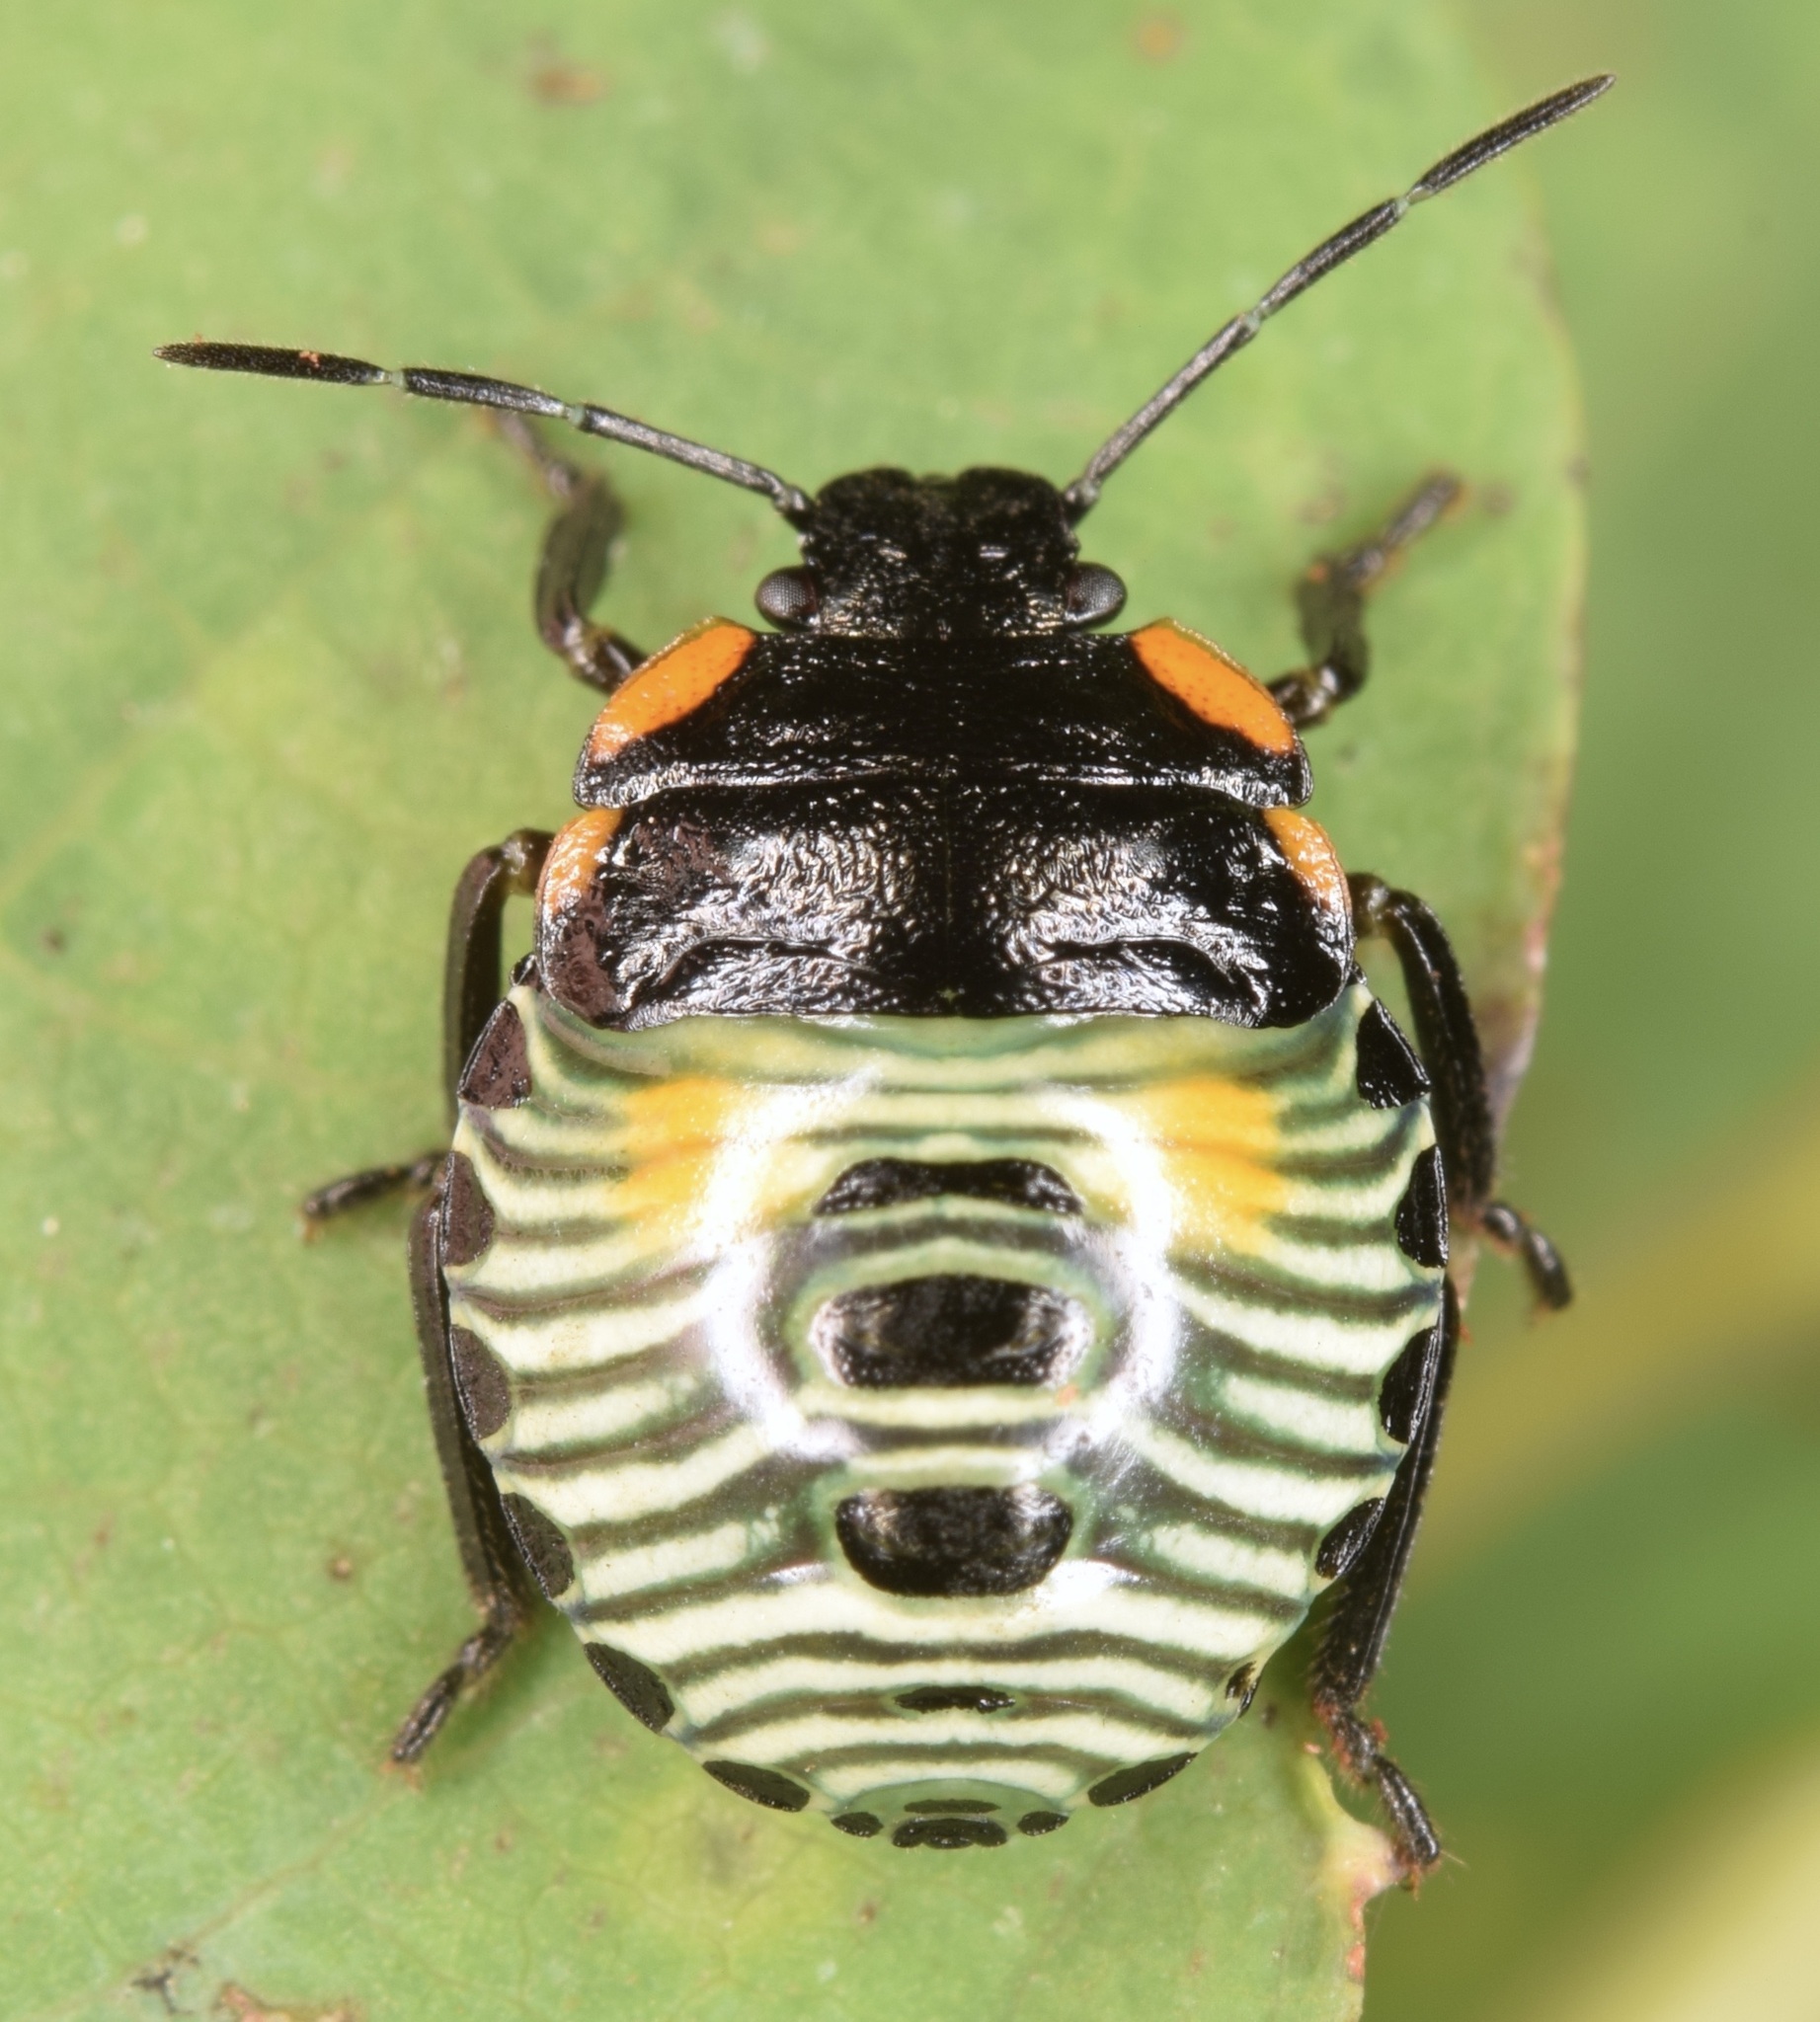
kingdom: Animalia
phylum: Arthropoda
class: Insecta
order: Hemiptera
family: Pentatomidae
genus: Chinavia
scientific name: Chinavia hilaris
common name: Green stink bug
